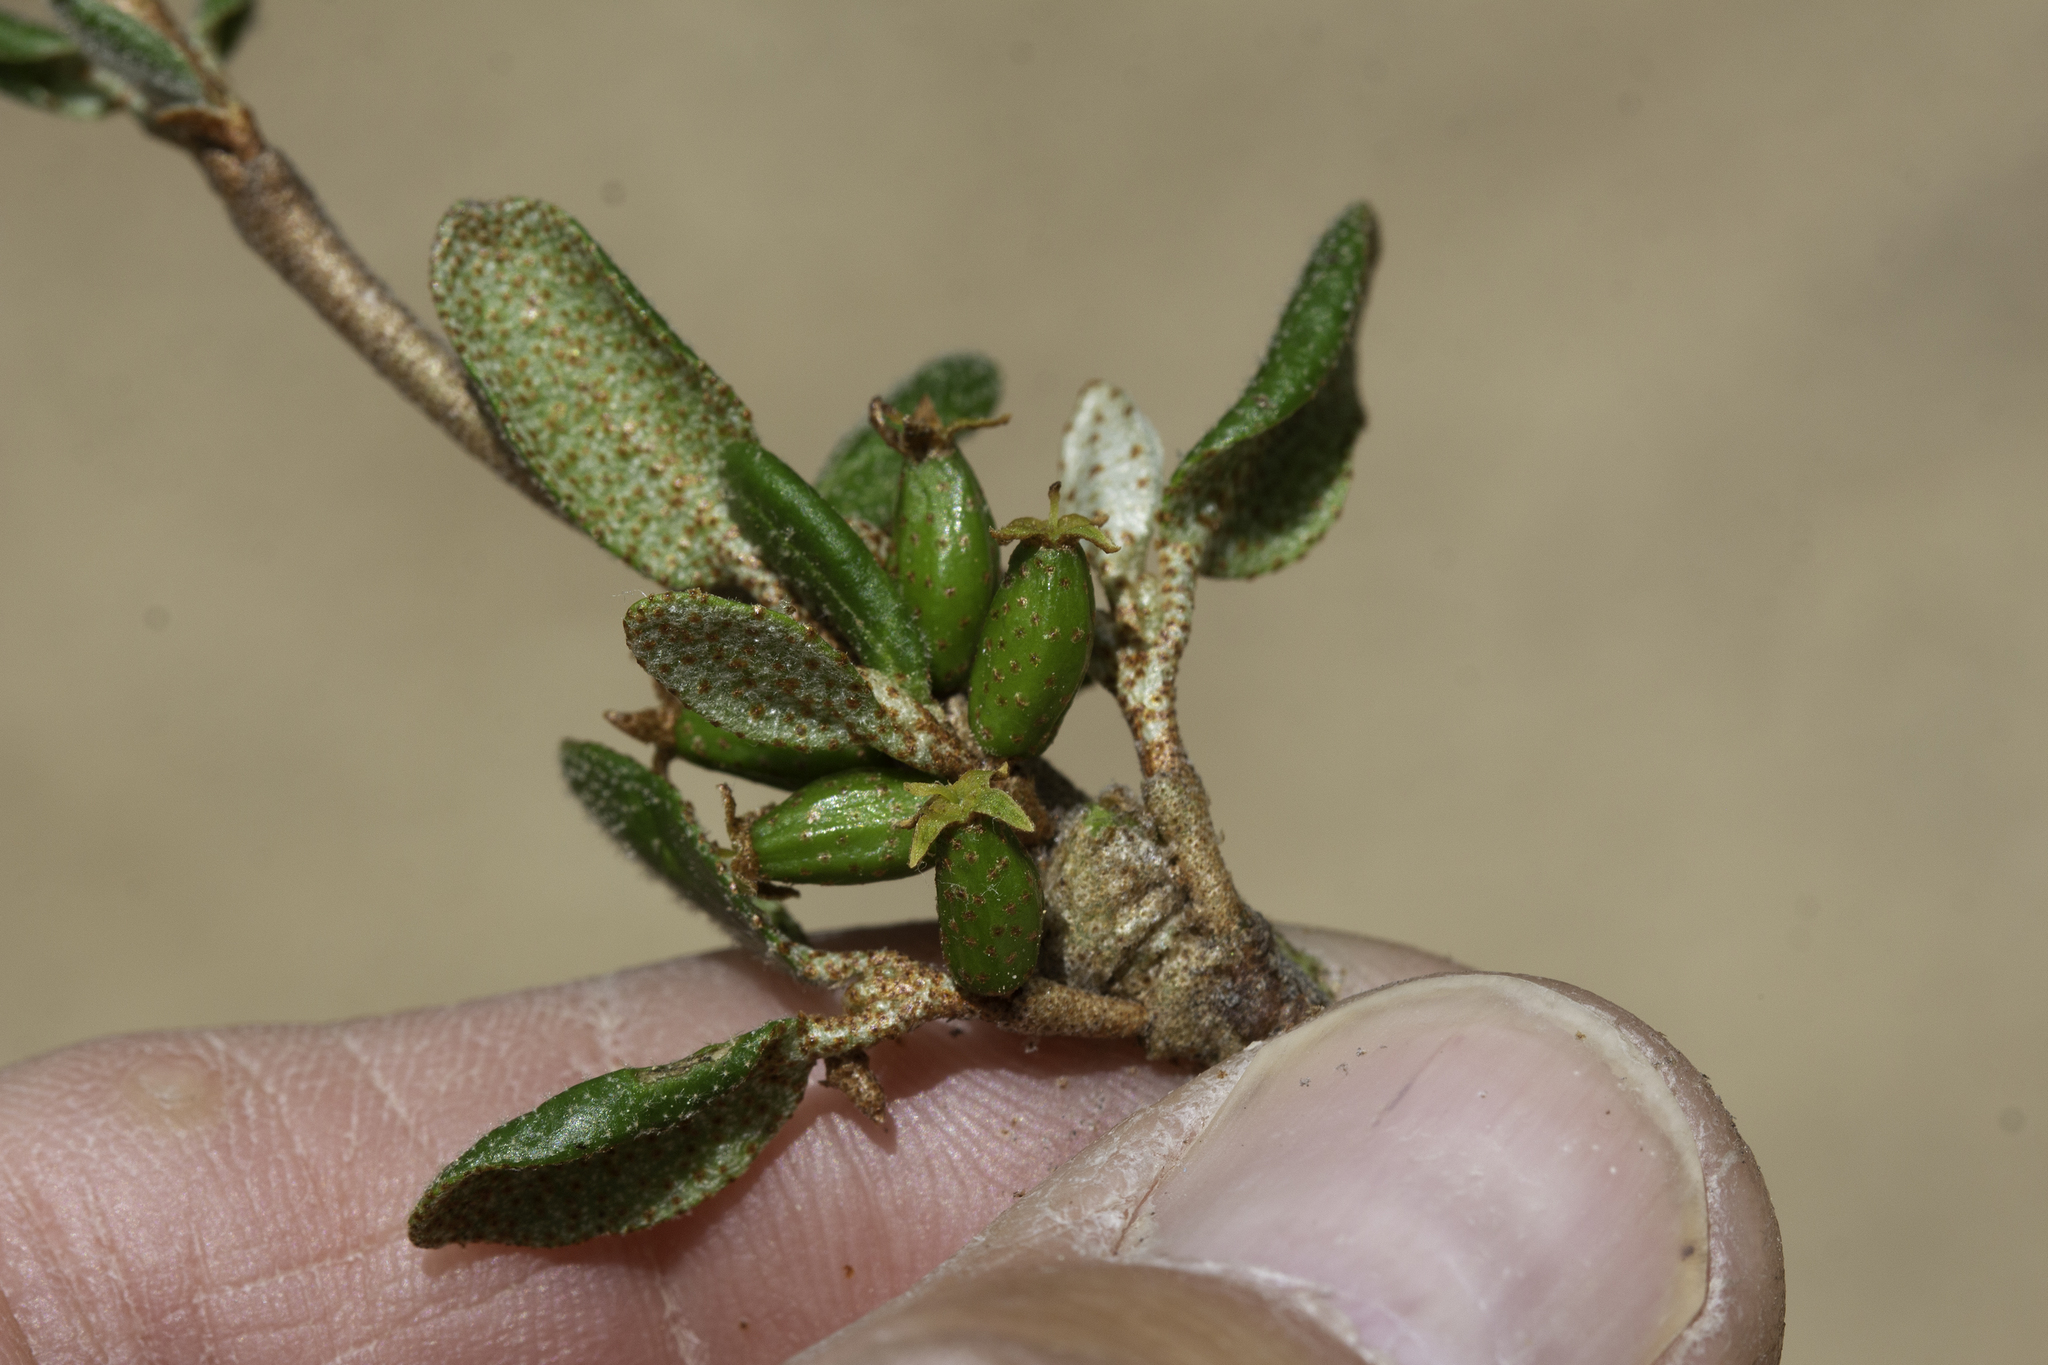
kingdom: Plantae
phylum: Tracheophyta
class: Magnoliopsida
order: Rosales
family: Elaeagnaceae
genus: Shepherdia
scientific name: Shepherdia canadensis
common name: Soapberry
